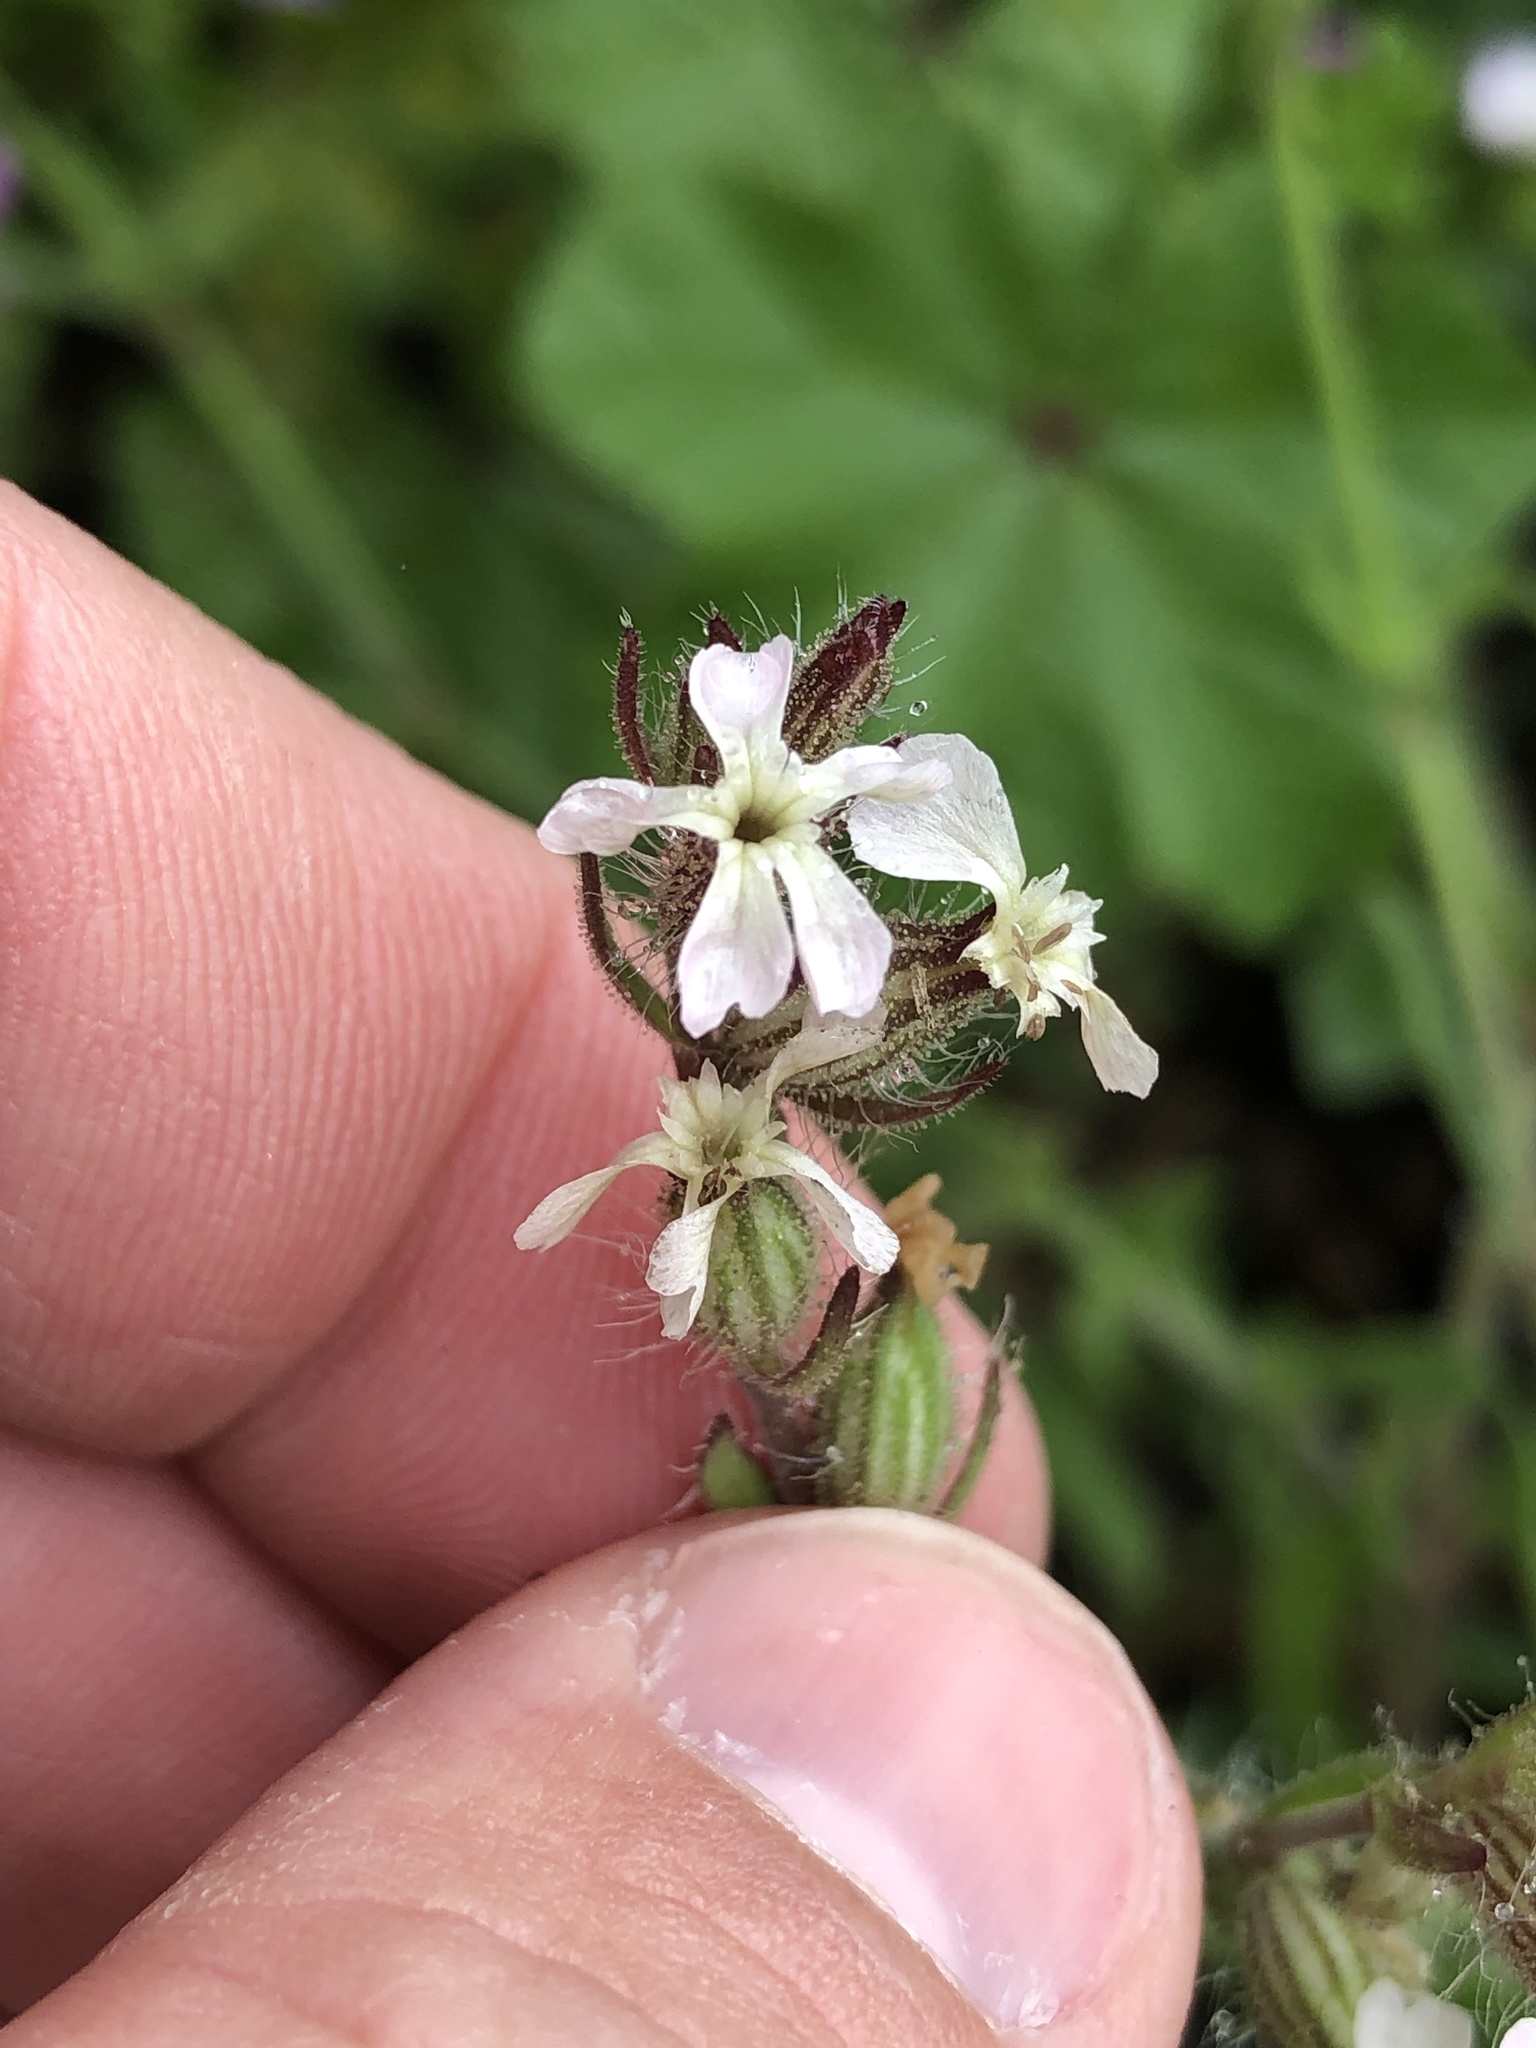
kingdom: Plantae
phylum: Tracheophyta
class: Magnoliopsida
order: Caryophyllales
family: Caryophyllaceae
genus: Silene
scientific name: Silene gallica
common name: Small-flowered catchfly
